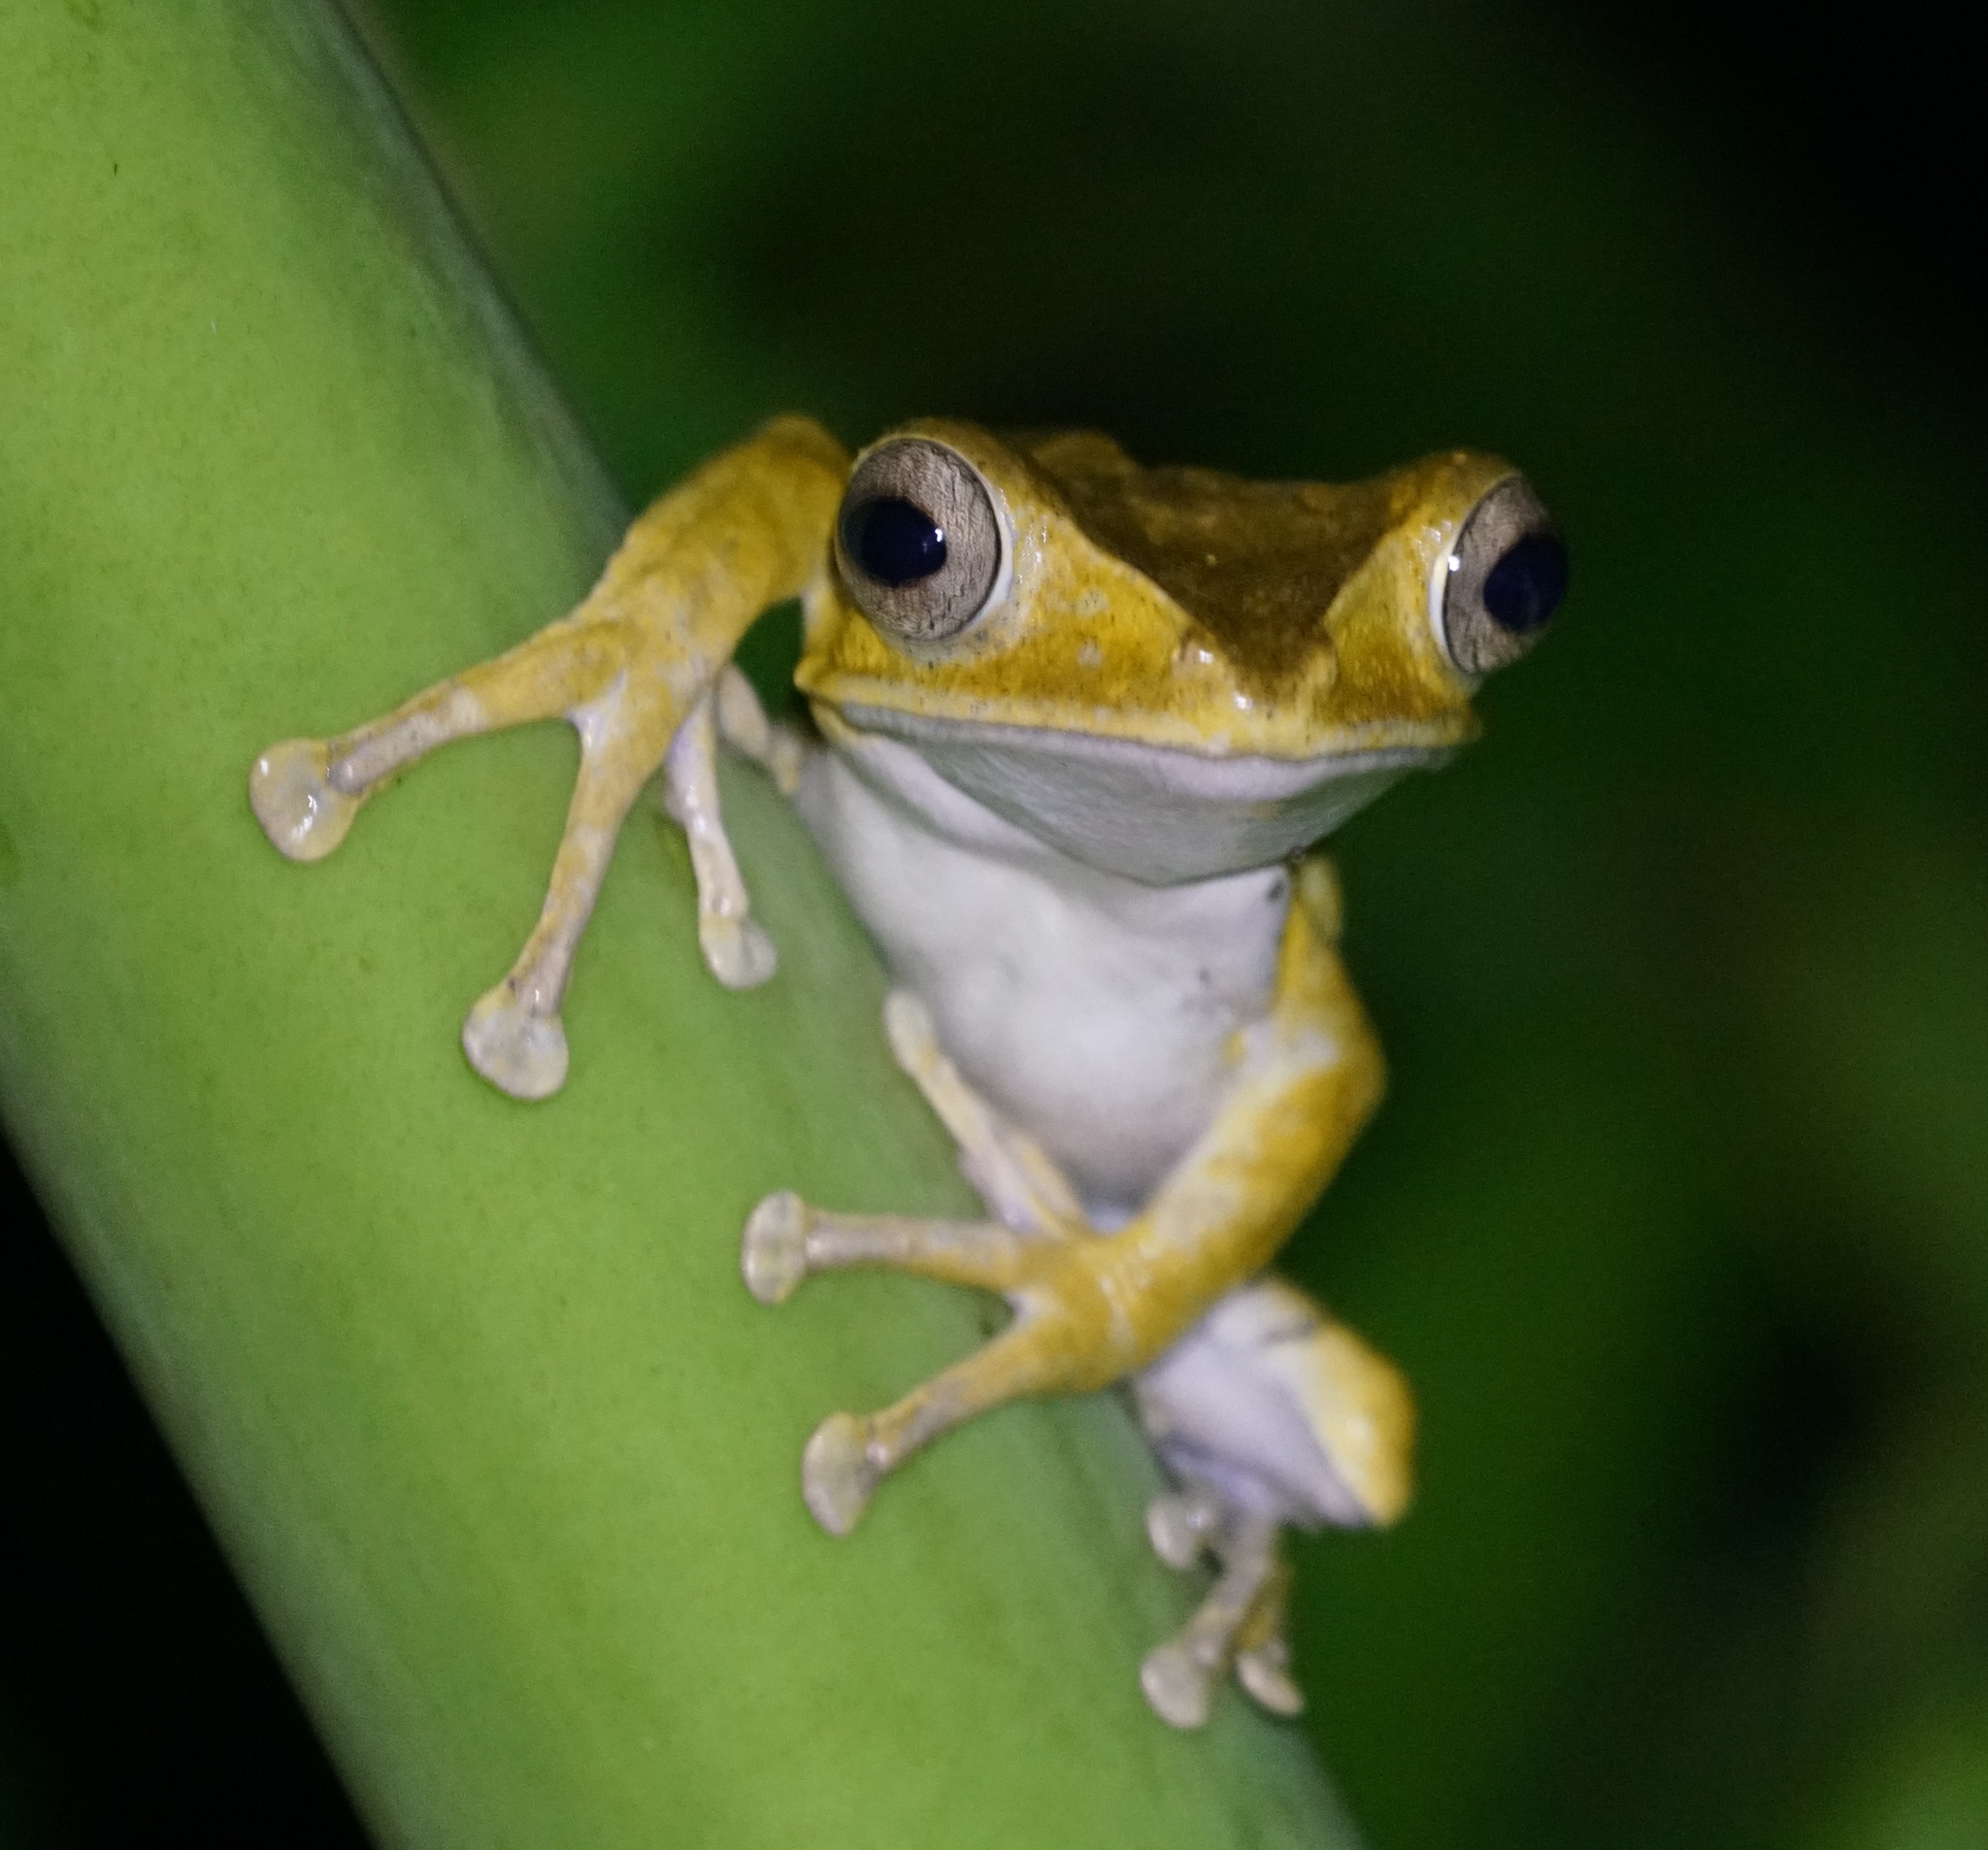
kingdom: Animalia
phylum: Chordata
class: Amphibia
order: Anura
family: Rhacophoridae
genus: Polypedates
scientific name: Polypedates otilophus
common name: File-eared tree frog
